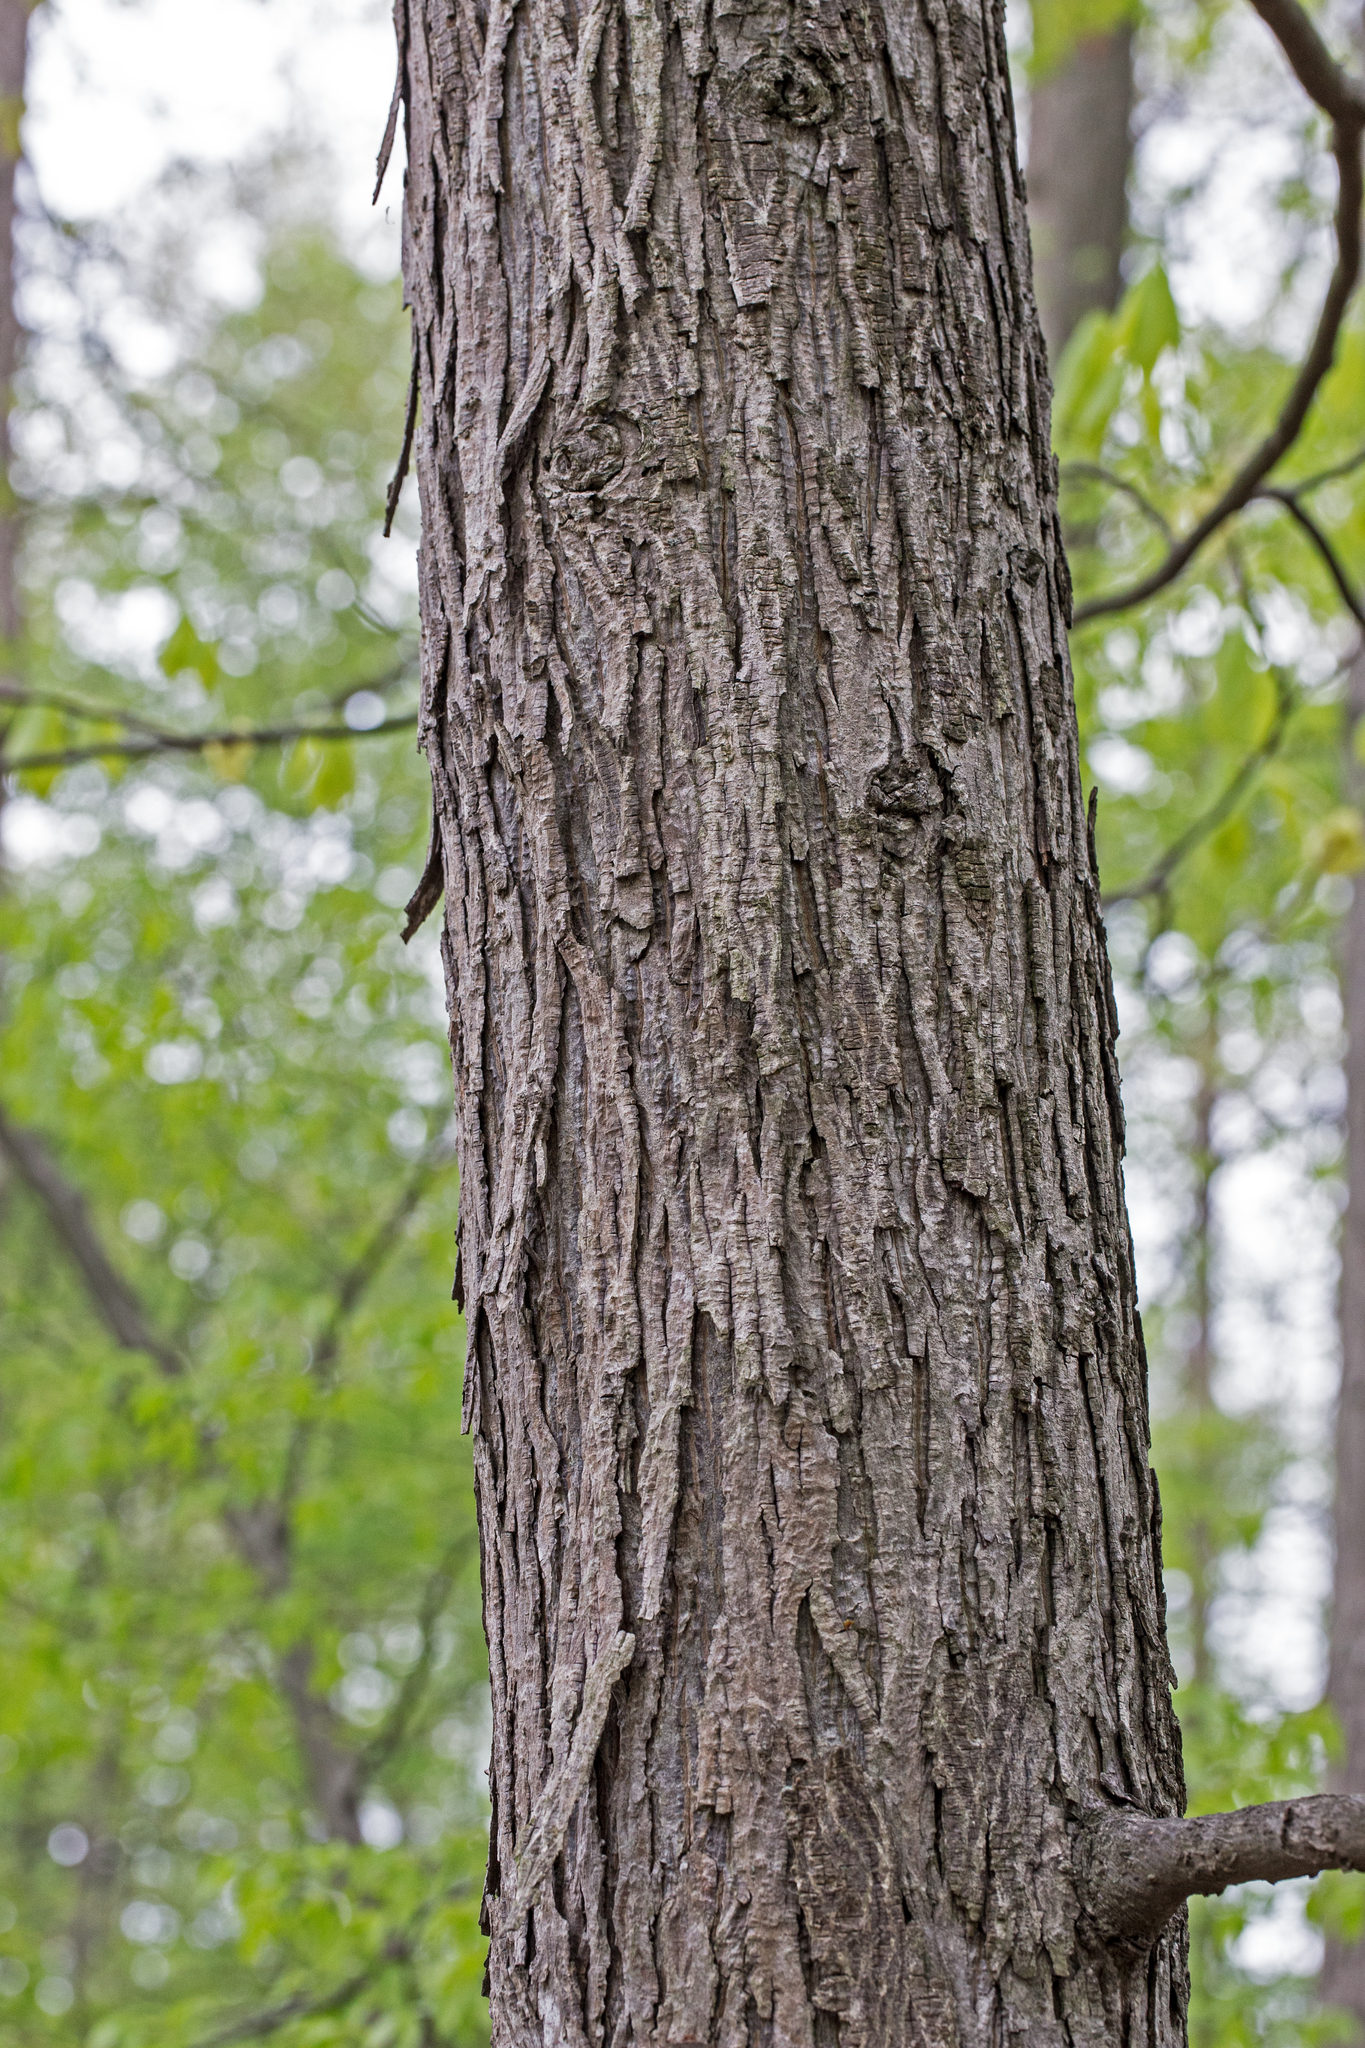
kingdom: Plantae
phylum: Tracheophyta
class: Magnoliopsida
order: Fagales
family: Juglandaceae
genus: Carya
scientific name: Carya ovata
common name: Shagbark hickory
